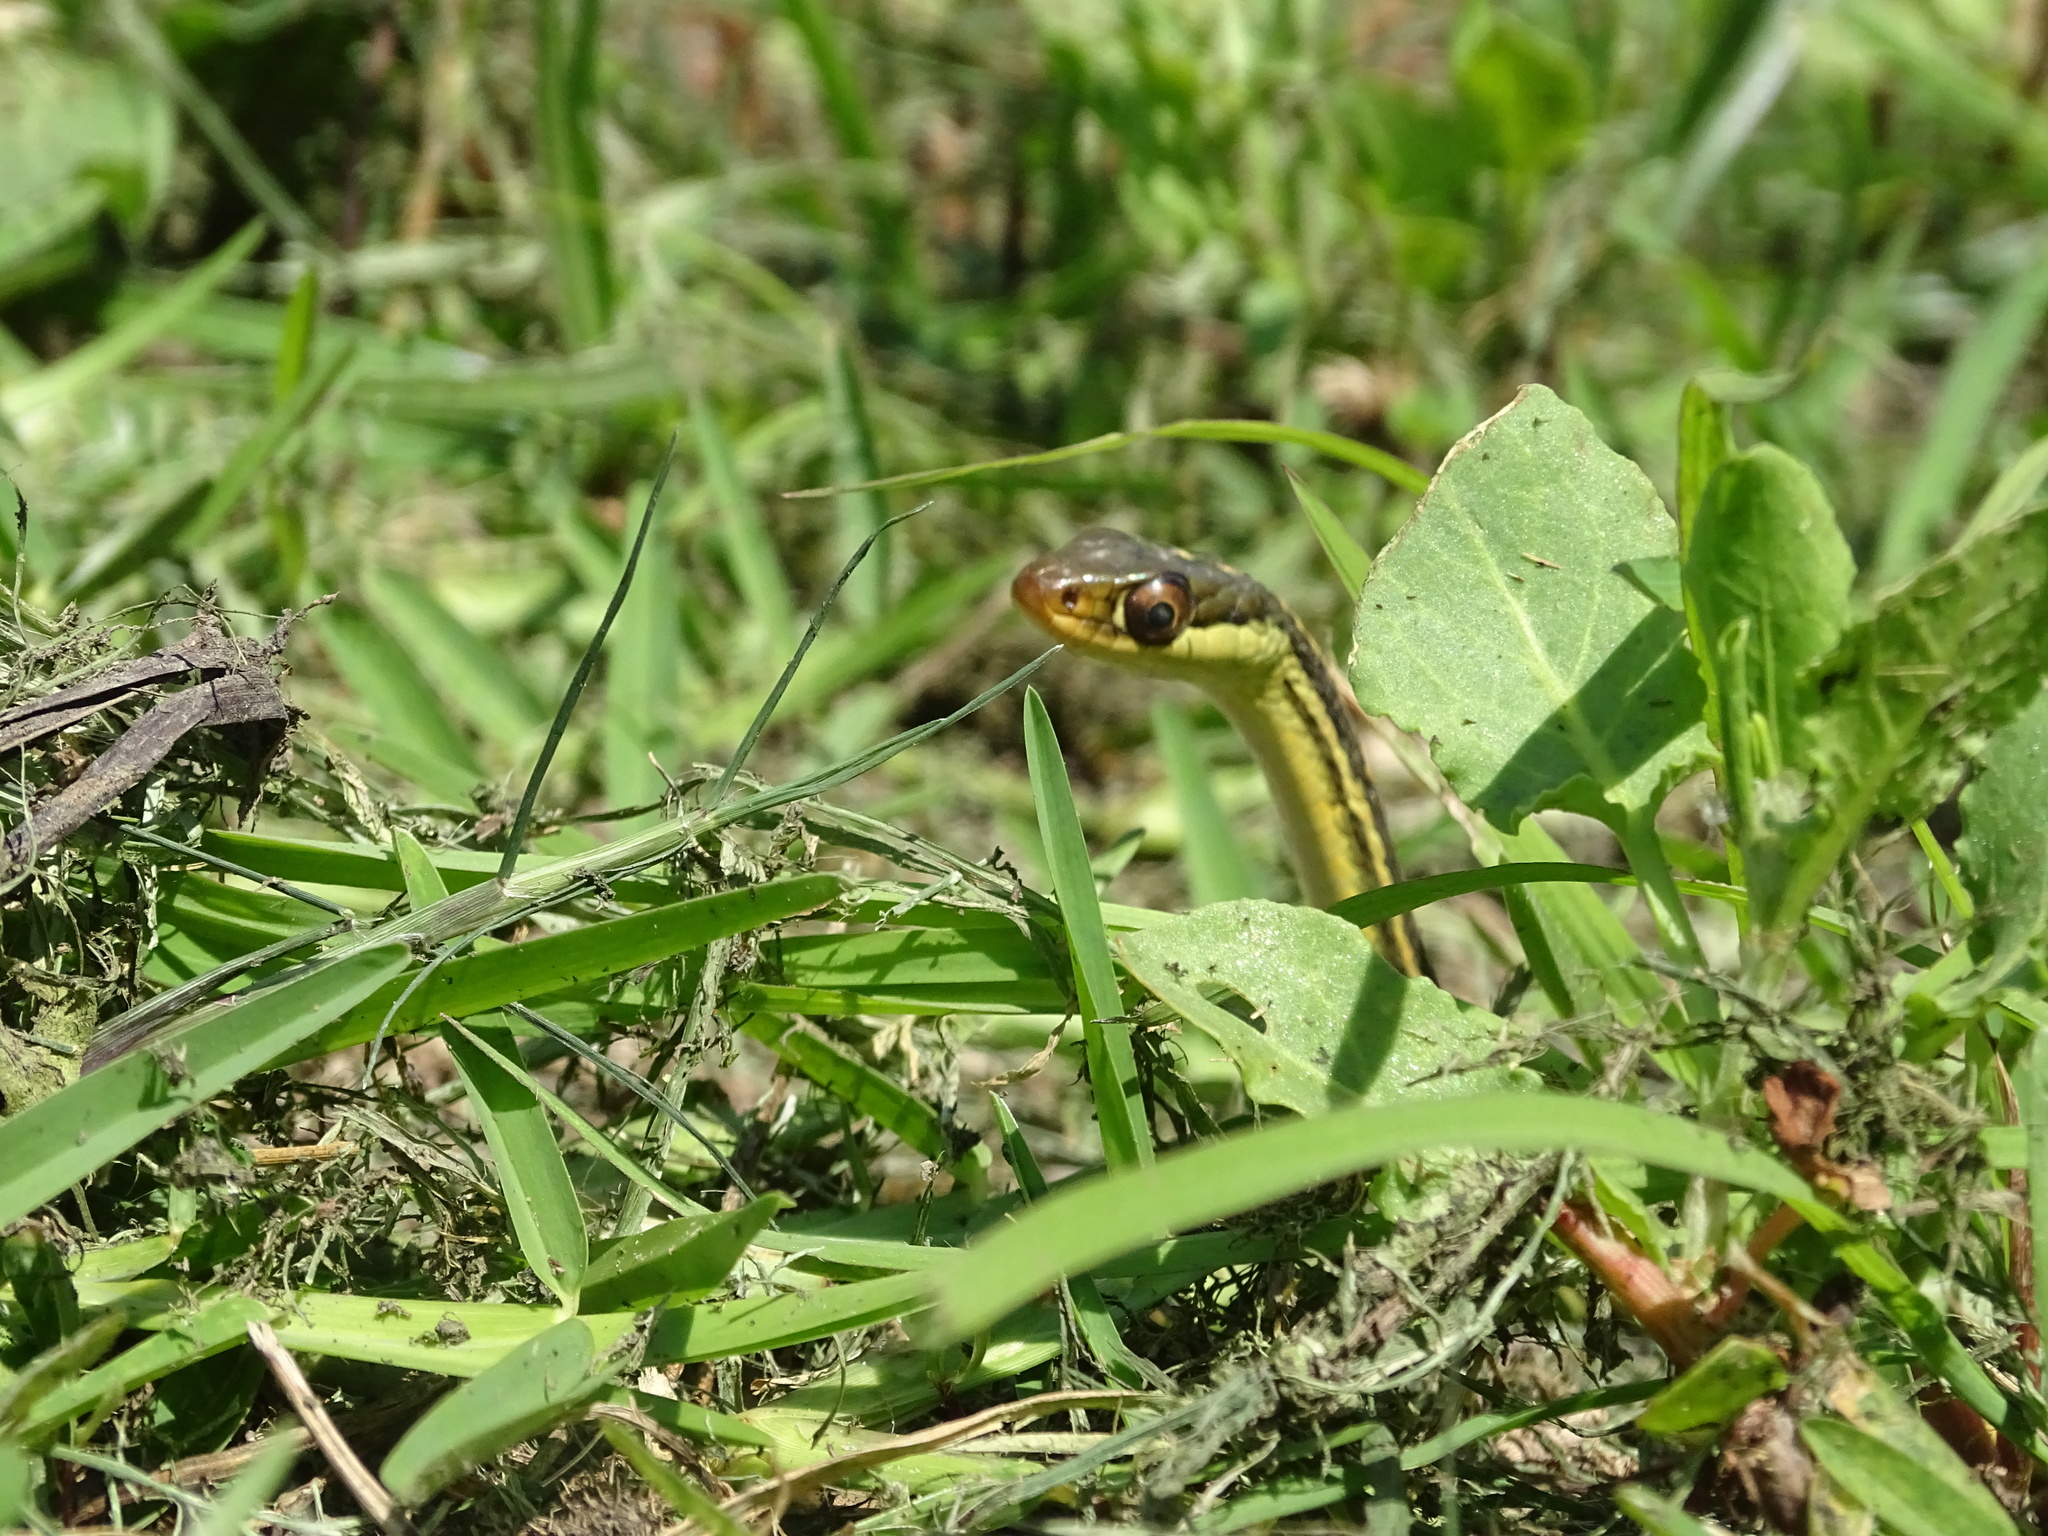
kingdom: Animalia
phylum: Chordata
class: Squamata
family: Colubridae
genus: Thamnophis
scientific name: Thamnophis proximus
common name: Western ribbon snake
